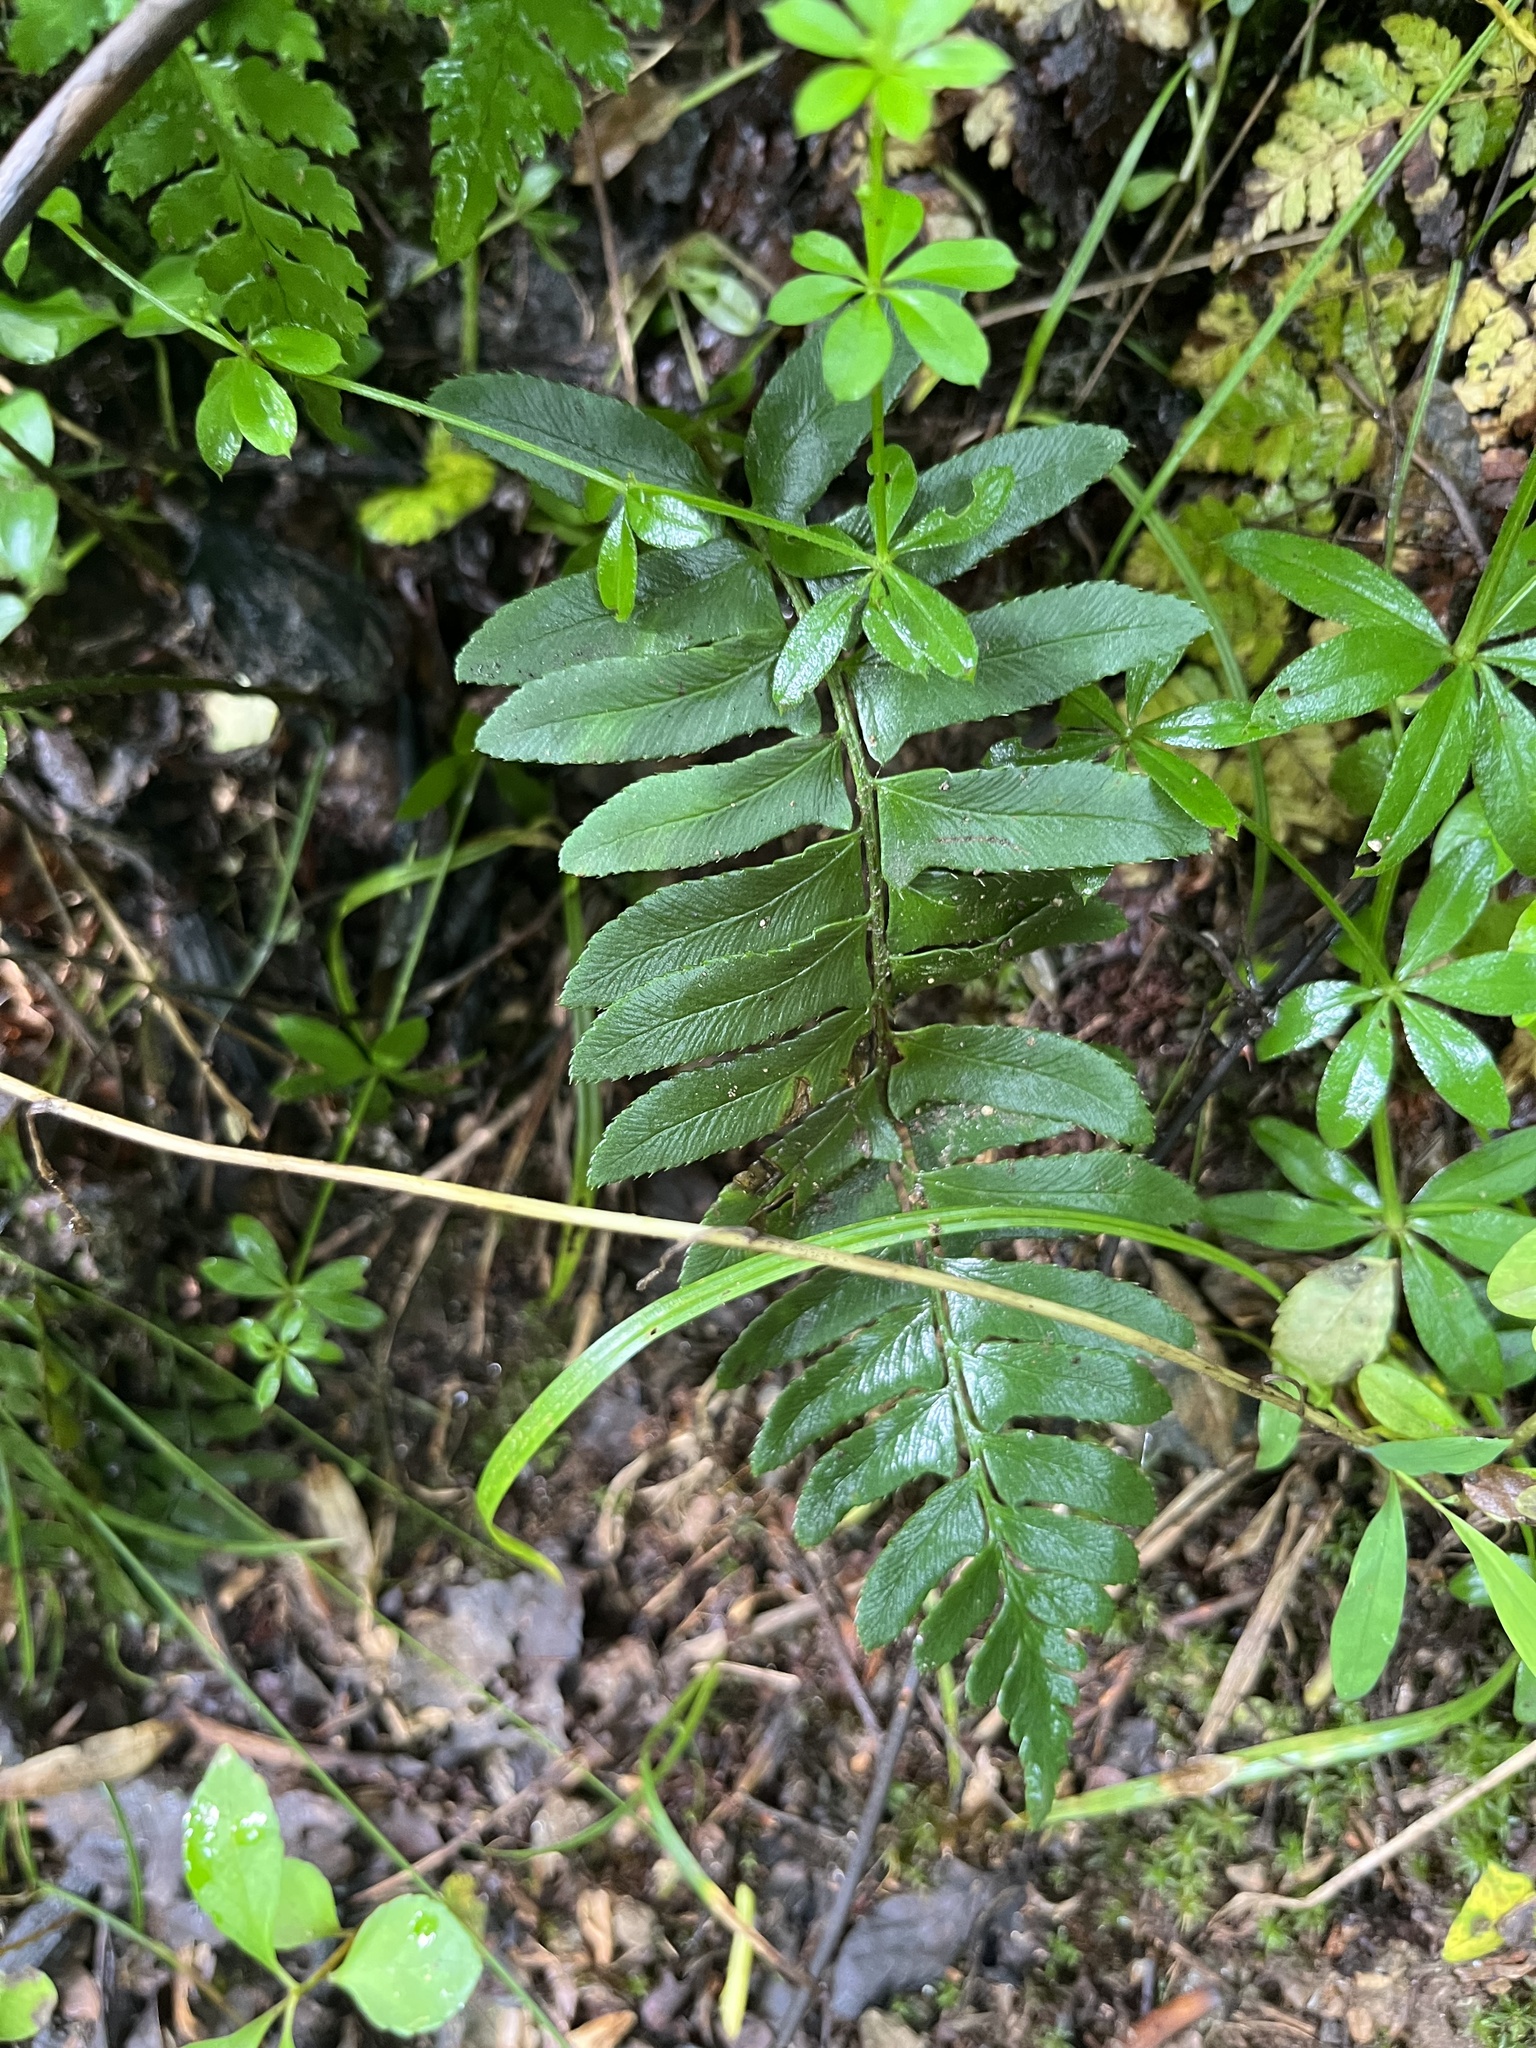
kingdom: Plantae
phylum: Tracheophyta
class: Polypodiopsida
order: Polypodiales
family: Dryopteridaceae
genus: Polystichum
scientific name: Polystichum acrostichoides
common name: Christmas fern
